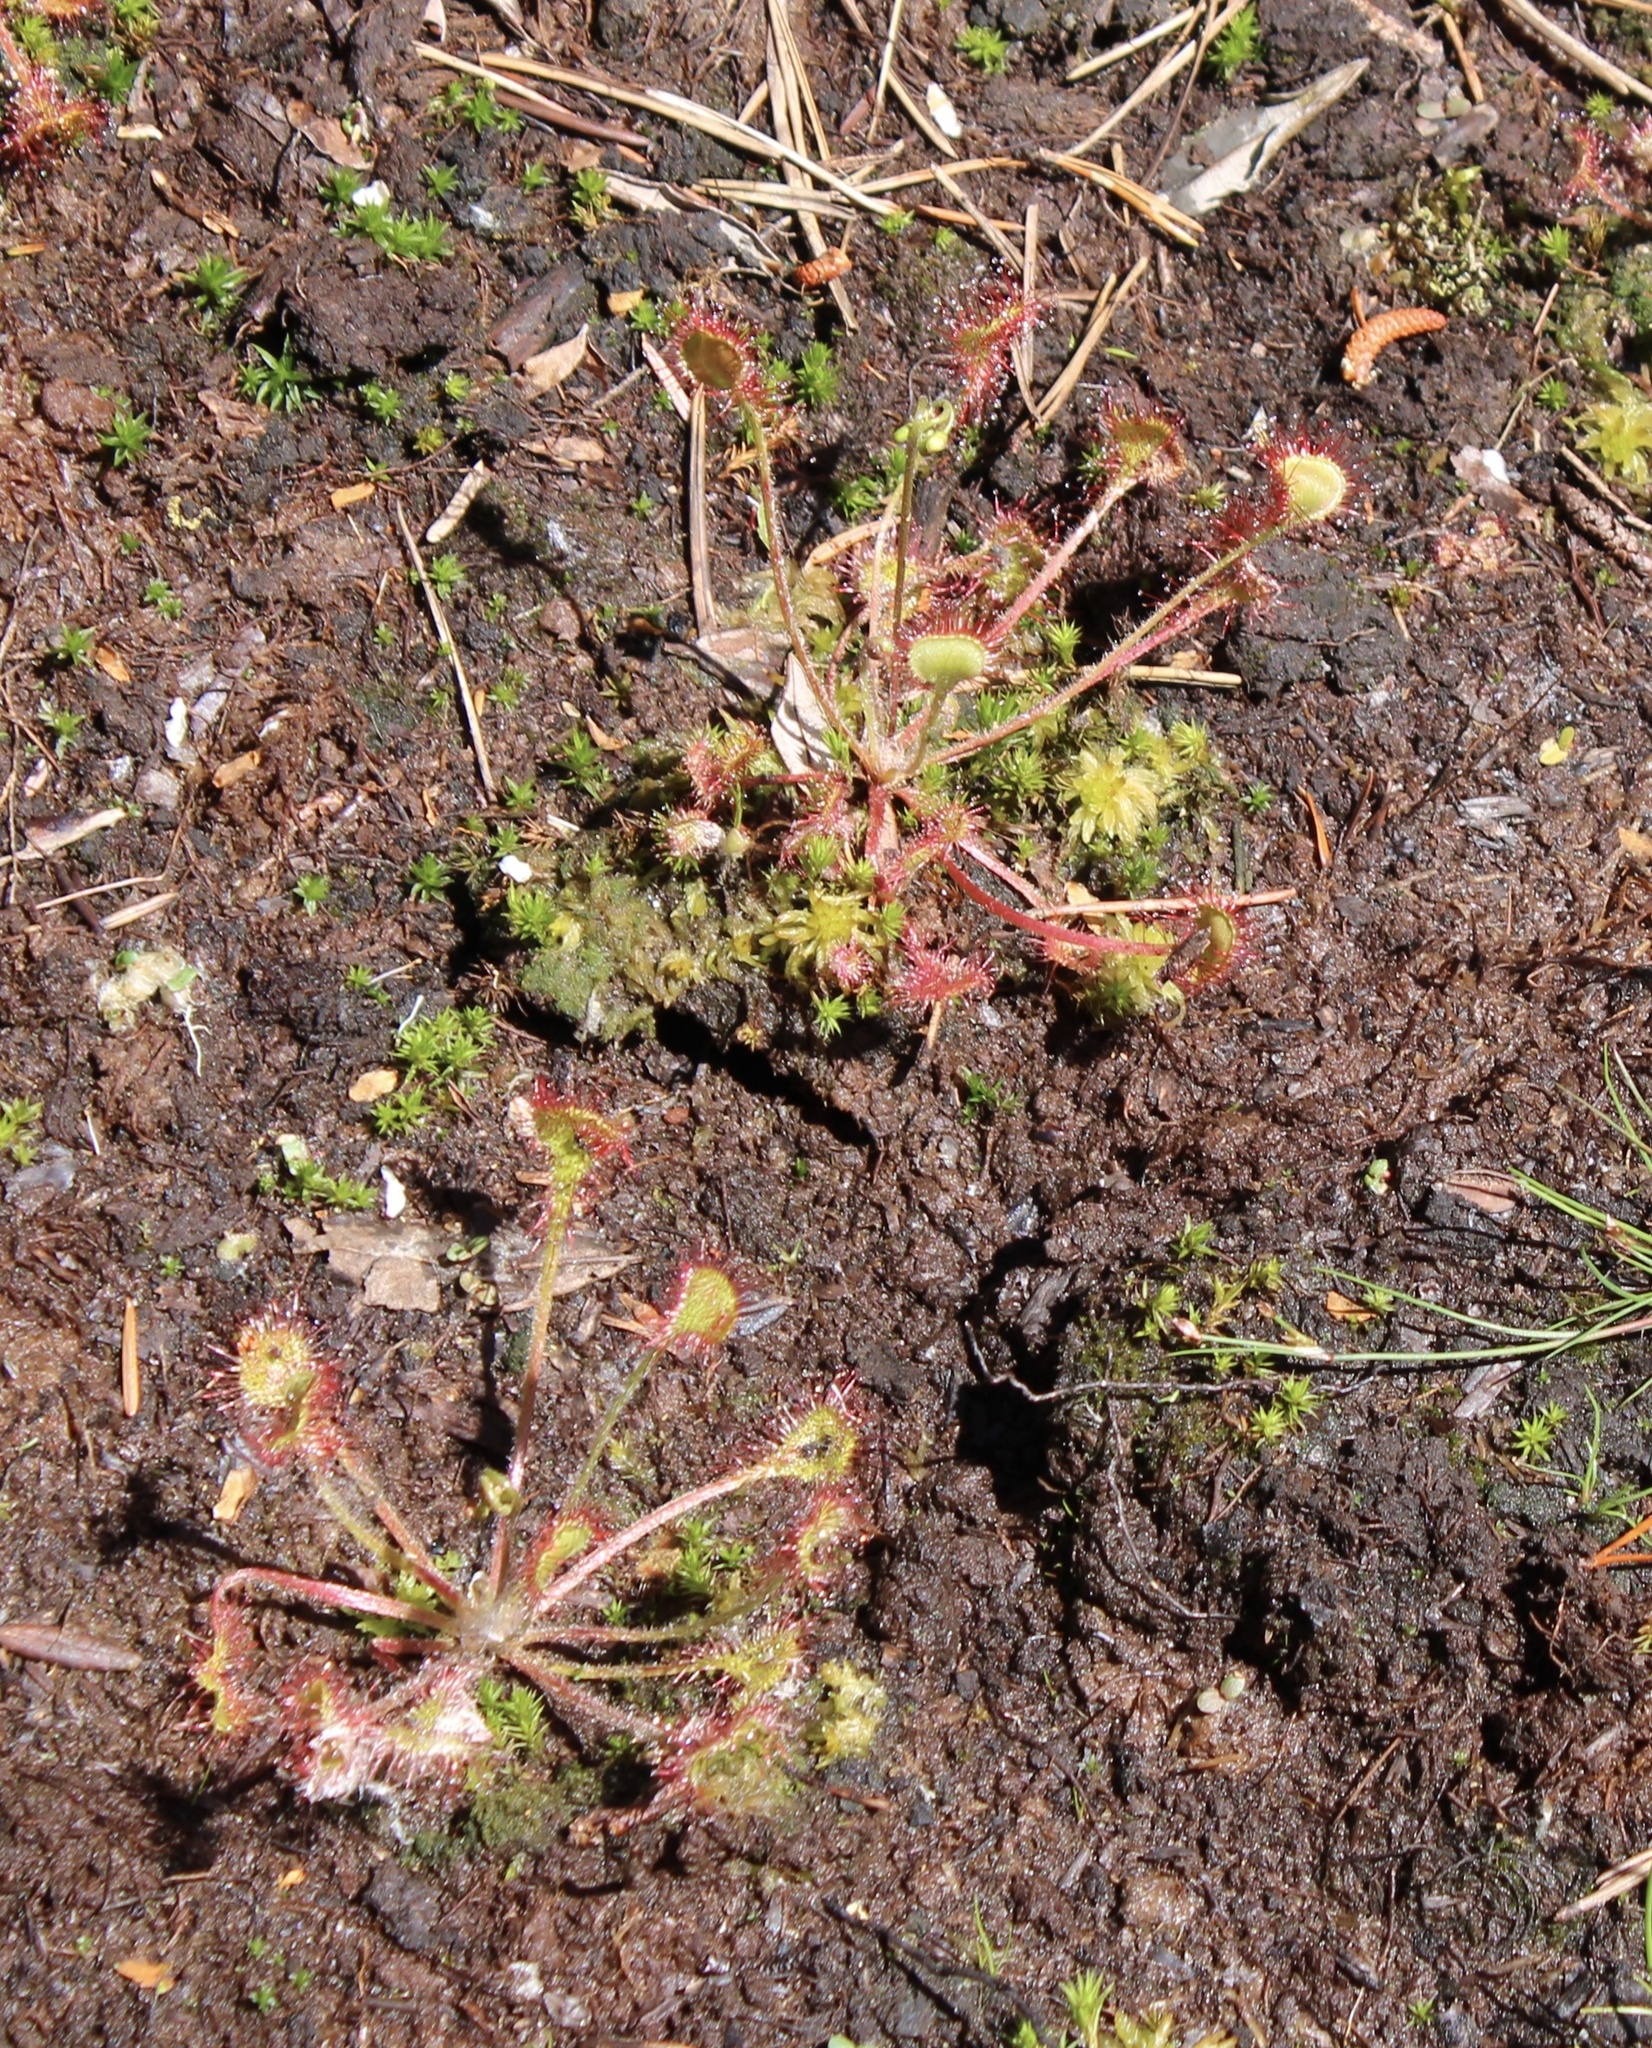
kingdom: Plantae
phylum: Tracheophyta
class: Magnoliopsida
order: Caryophyllales
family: Droseraceae
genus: Drosera
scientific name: Drosera rotundifolia
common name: Round-leaved sundew
